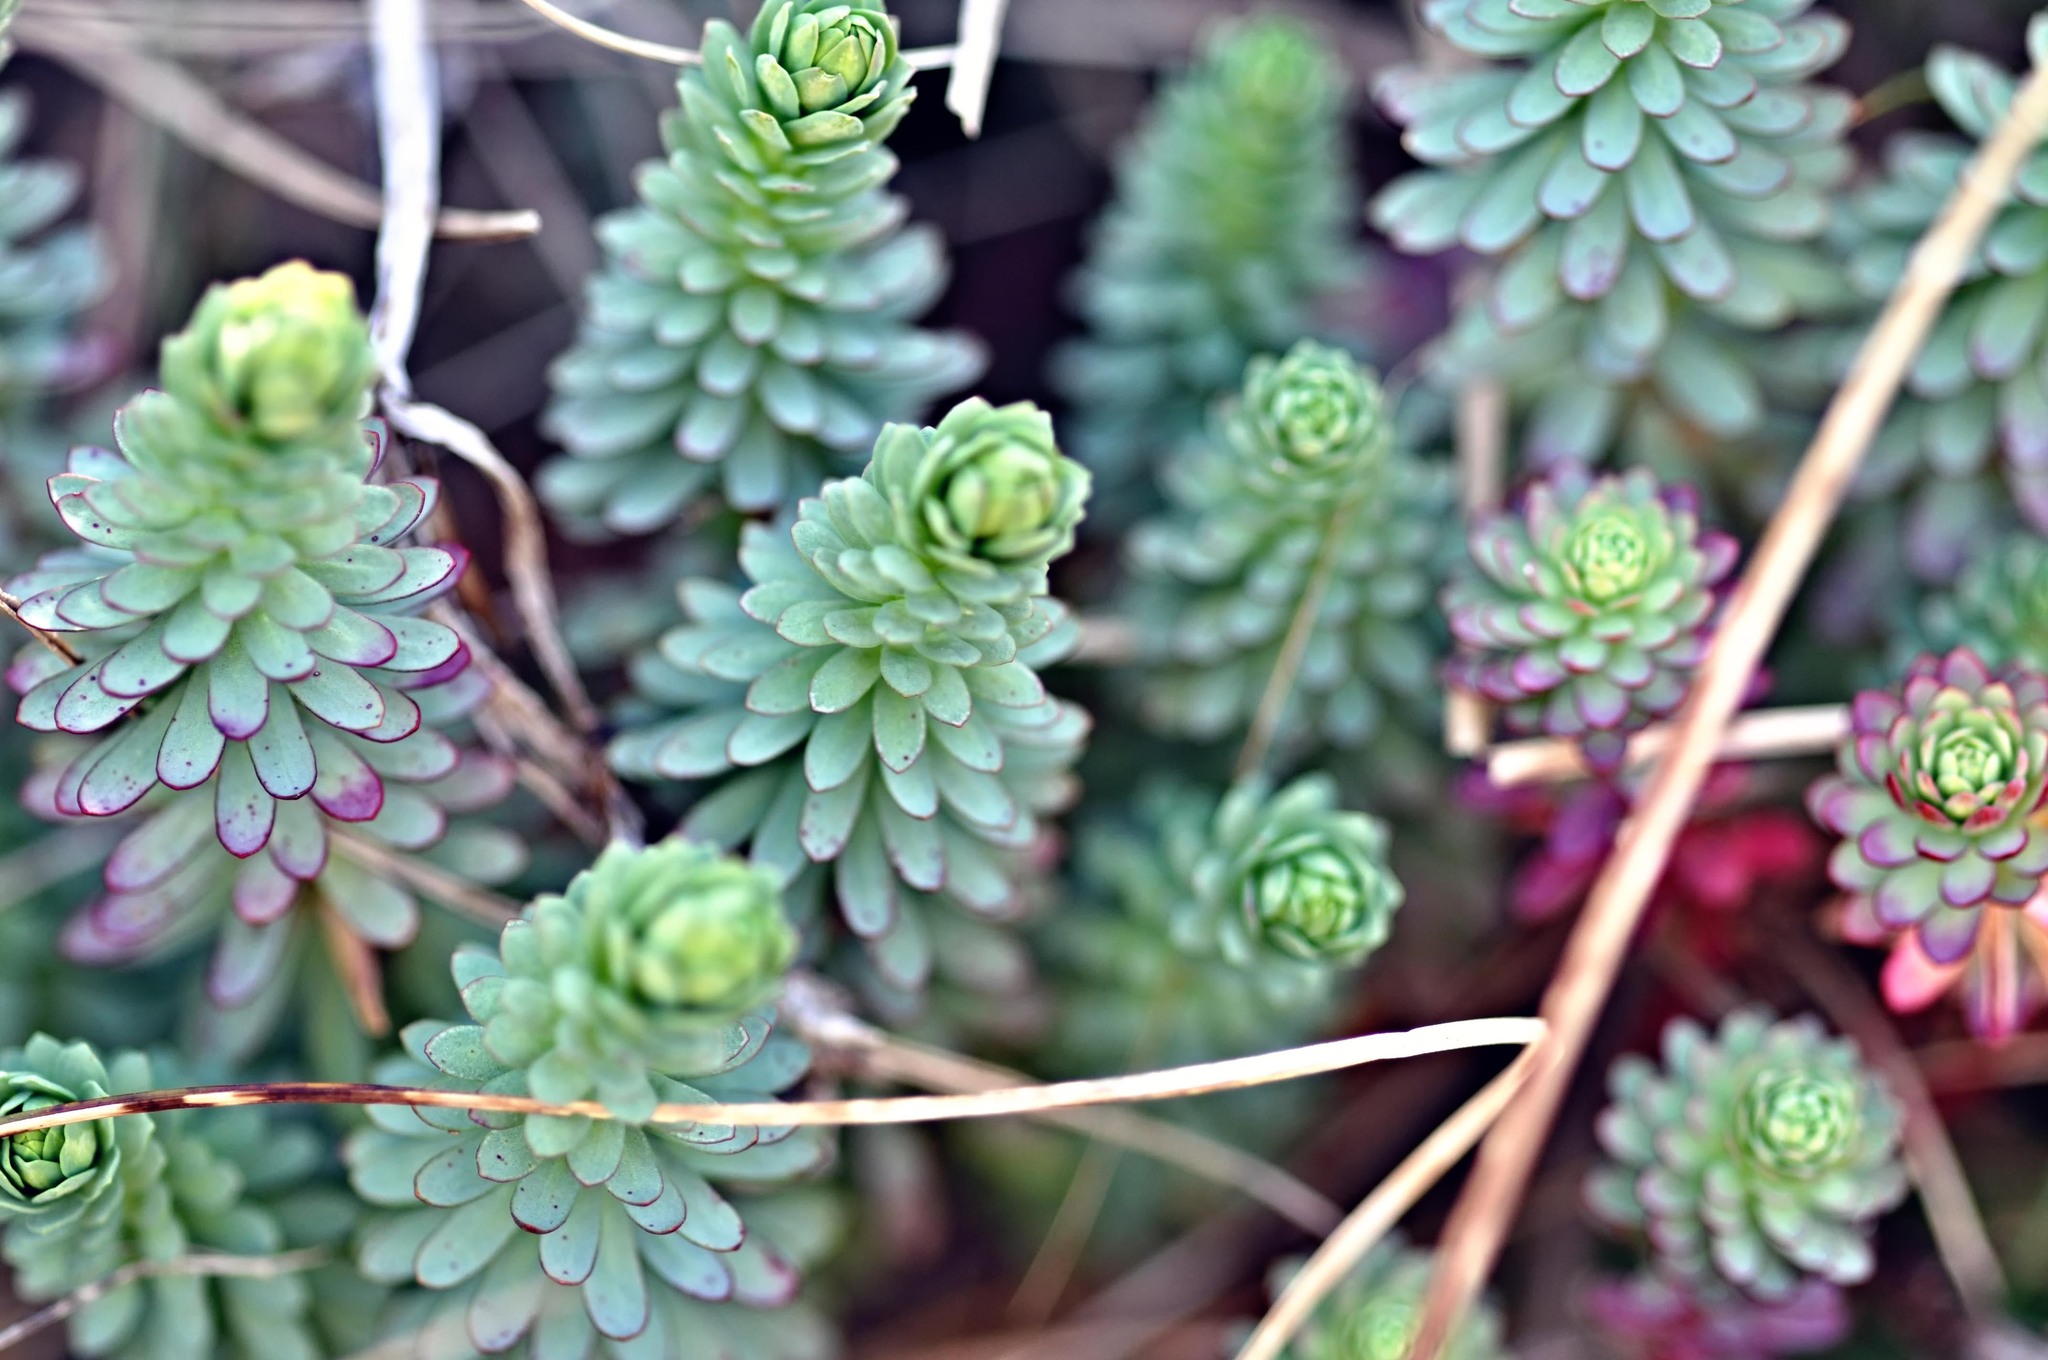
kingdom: Plantae
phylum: Tracheophyta
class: Magnoliopsida
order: Malpighiales
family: Euphorbiaceae
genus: Euphorbia
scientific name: Euphorbia paralias
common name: Sea spurge
